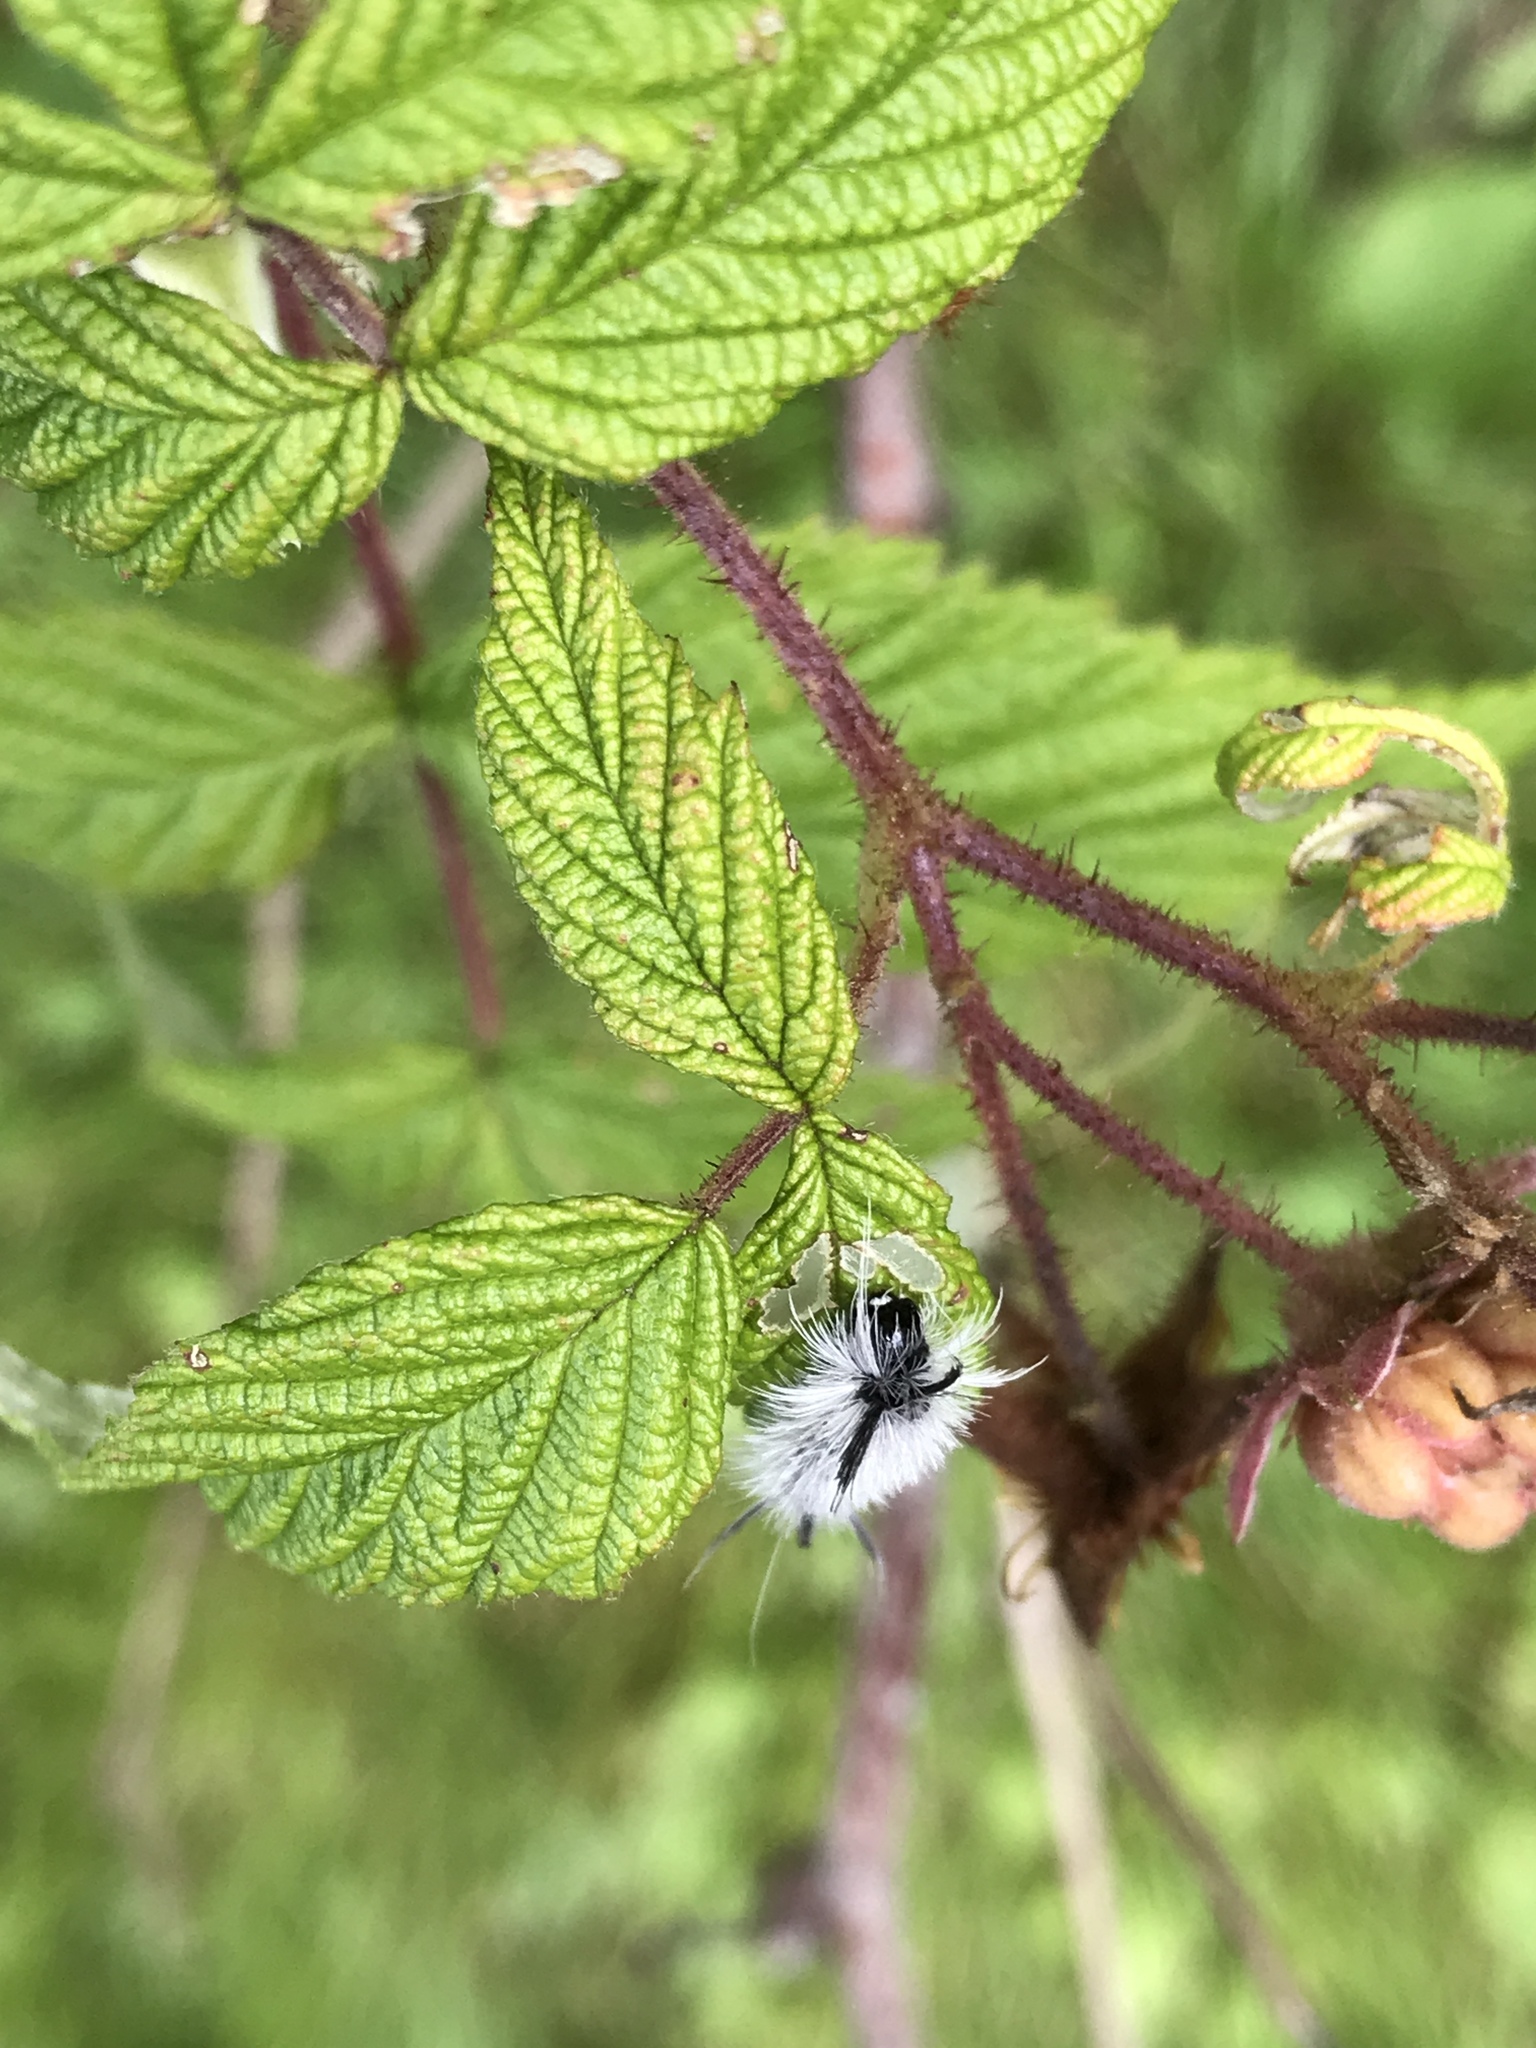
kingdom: Animalia
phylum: Arthropoda
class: Insecta
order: Lepidoptera
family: Erebidae
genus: Halysidota
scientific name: Halysidota tessellaris
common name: Banded tussock moth
